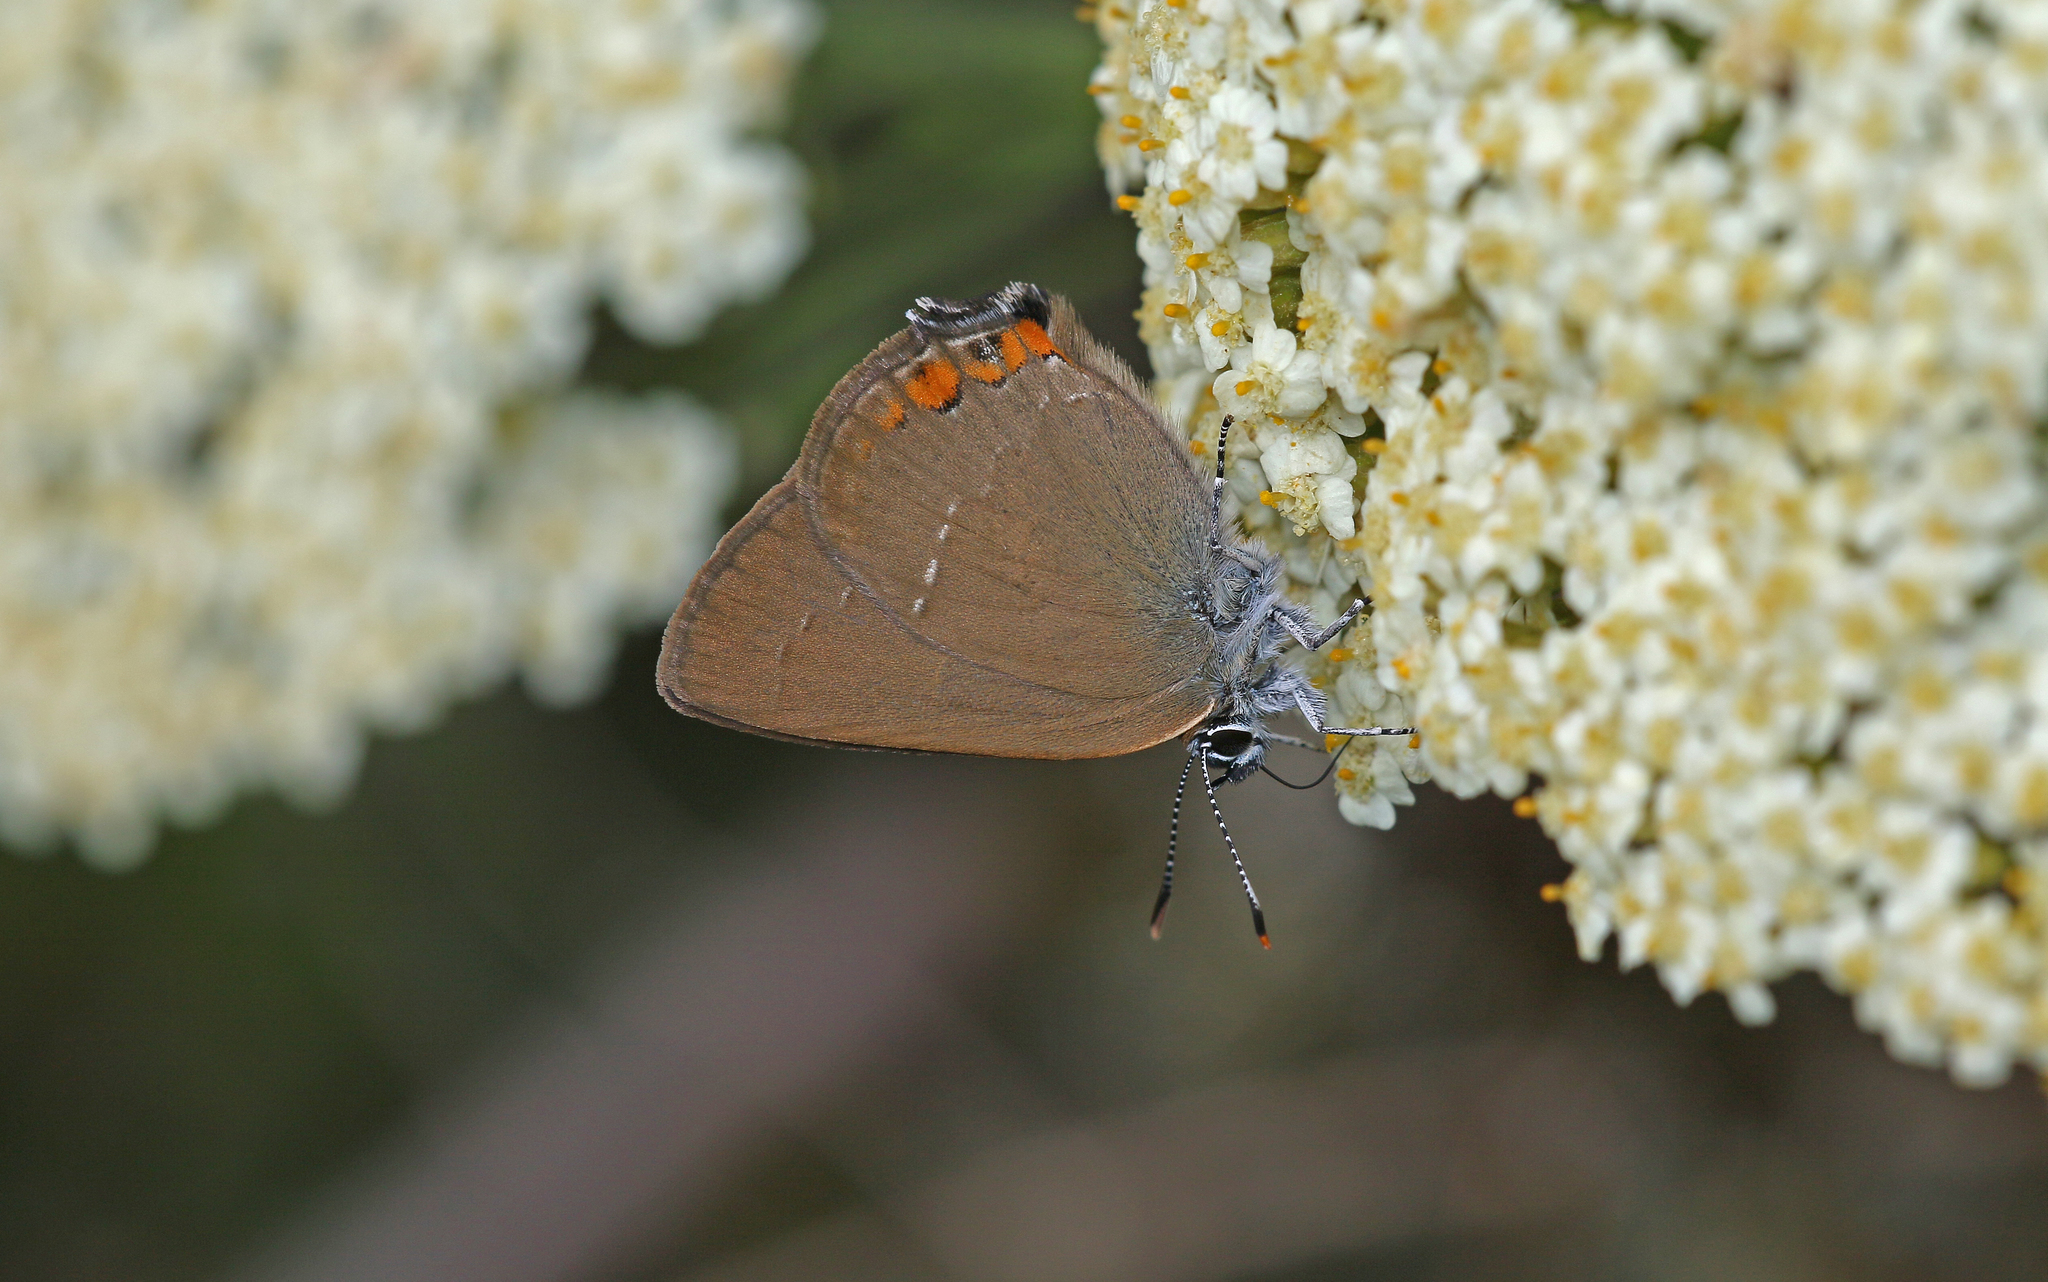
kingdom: Animalia
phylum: Arthropoda
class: Insecta
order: Lepidoptera
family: Lycaenidae
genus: Strymon
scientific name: Strymon acaciae
